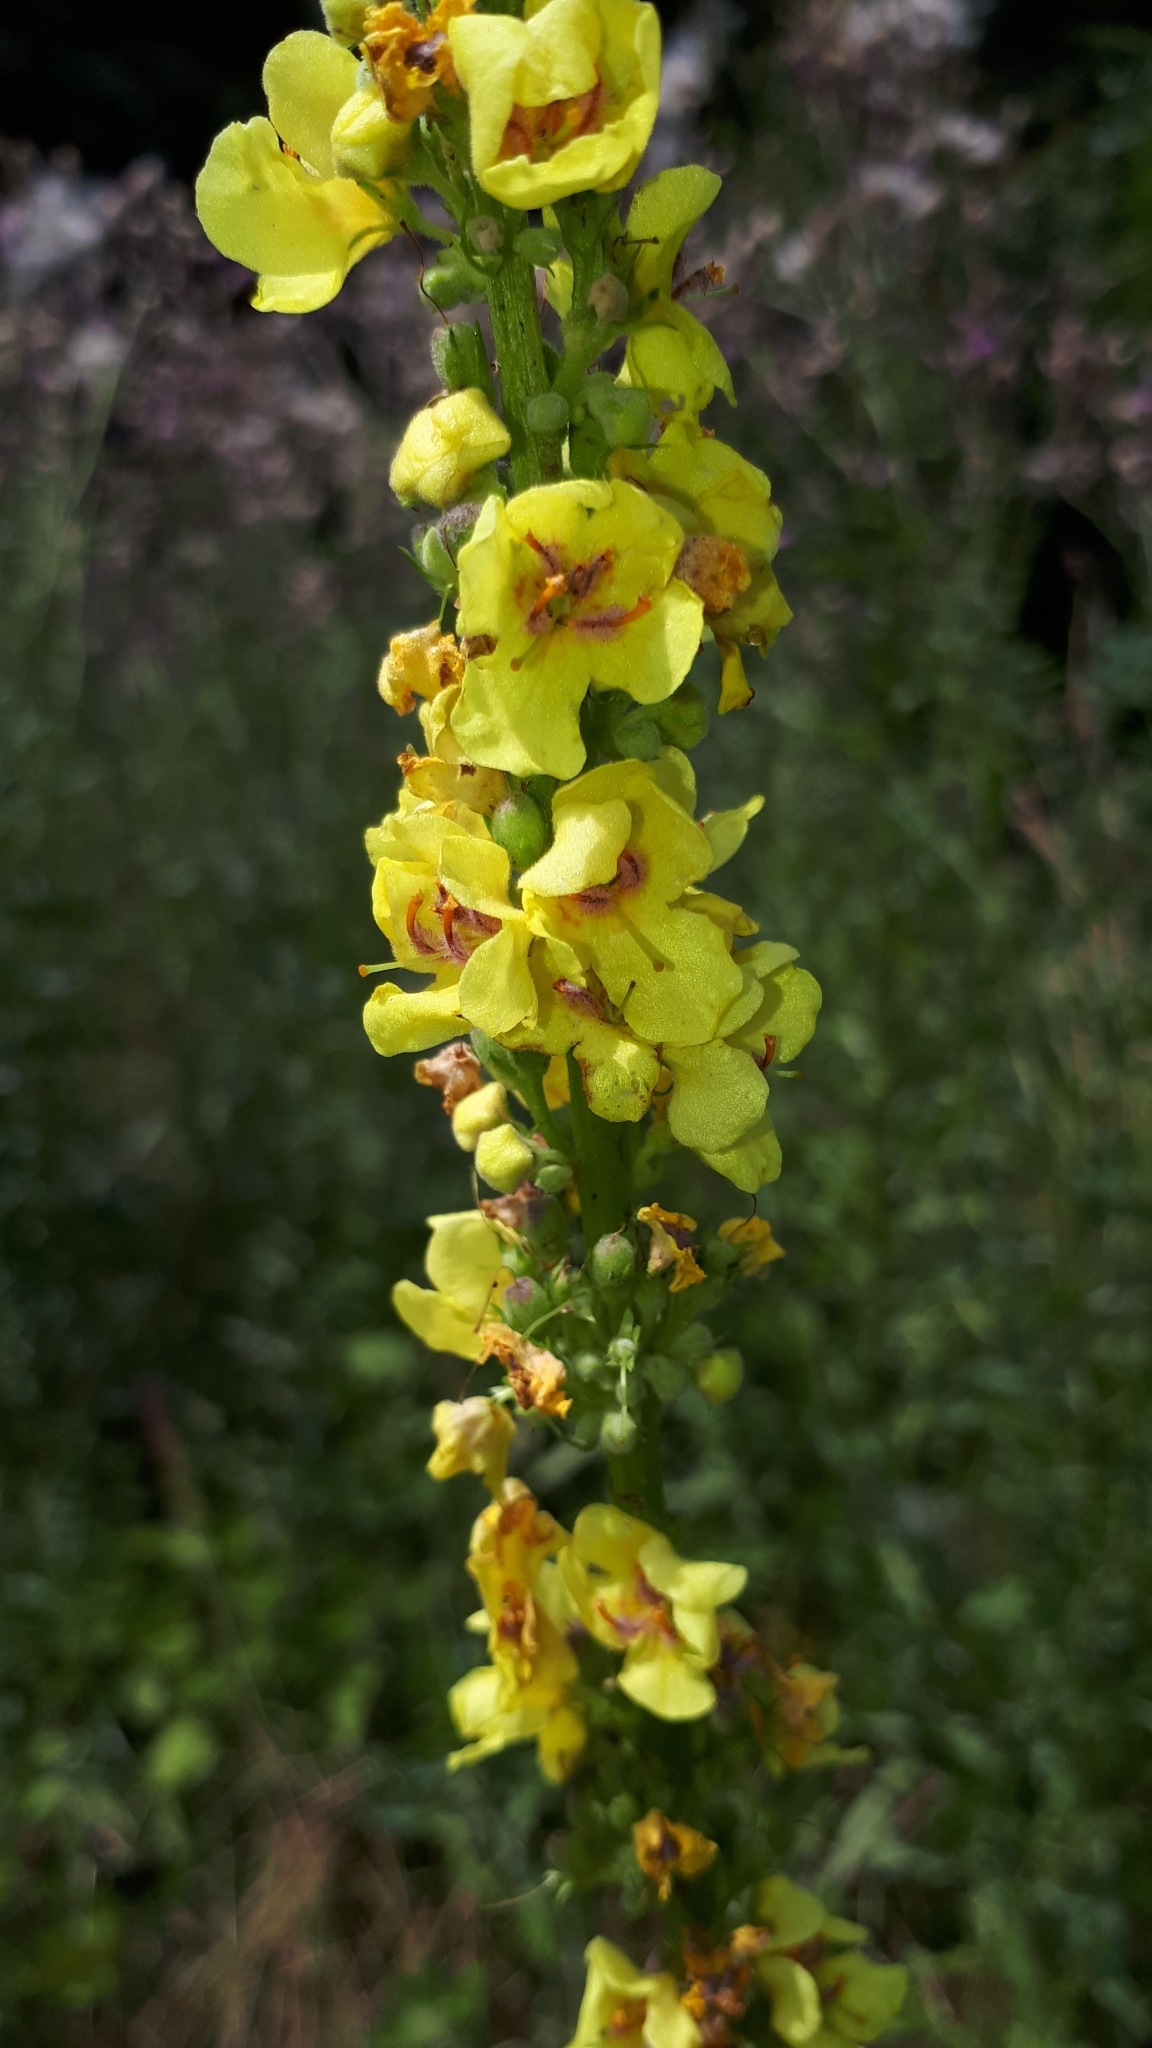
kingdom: Plantae
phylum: Tracheophyta
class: Magnoliopsida
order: Lamiales
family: Scrophulariaceae
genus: Verbascum
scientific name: Verbascum nigrum
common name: Dark mullein
